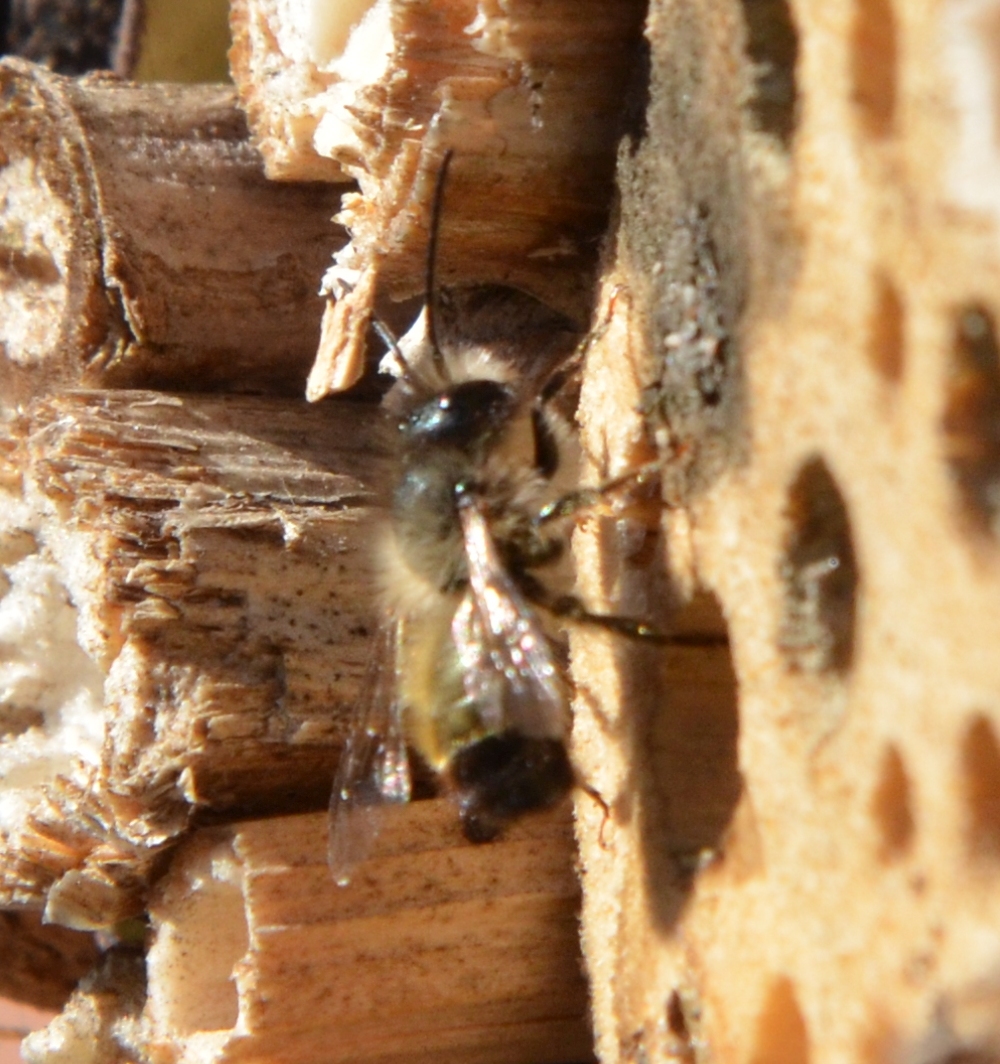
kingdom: Animalia
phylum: Arthropoda
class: Insecta
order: Hymenoptera
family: Megachilidae
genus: Osmia
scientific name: Osmia bicornis
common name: Red mason bee
